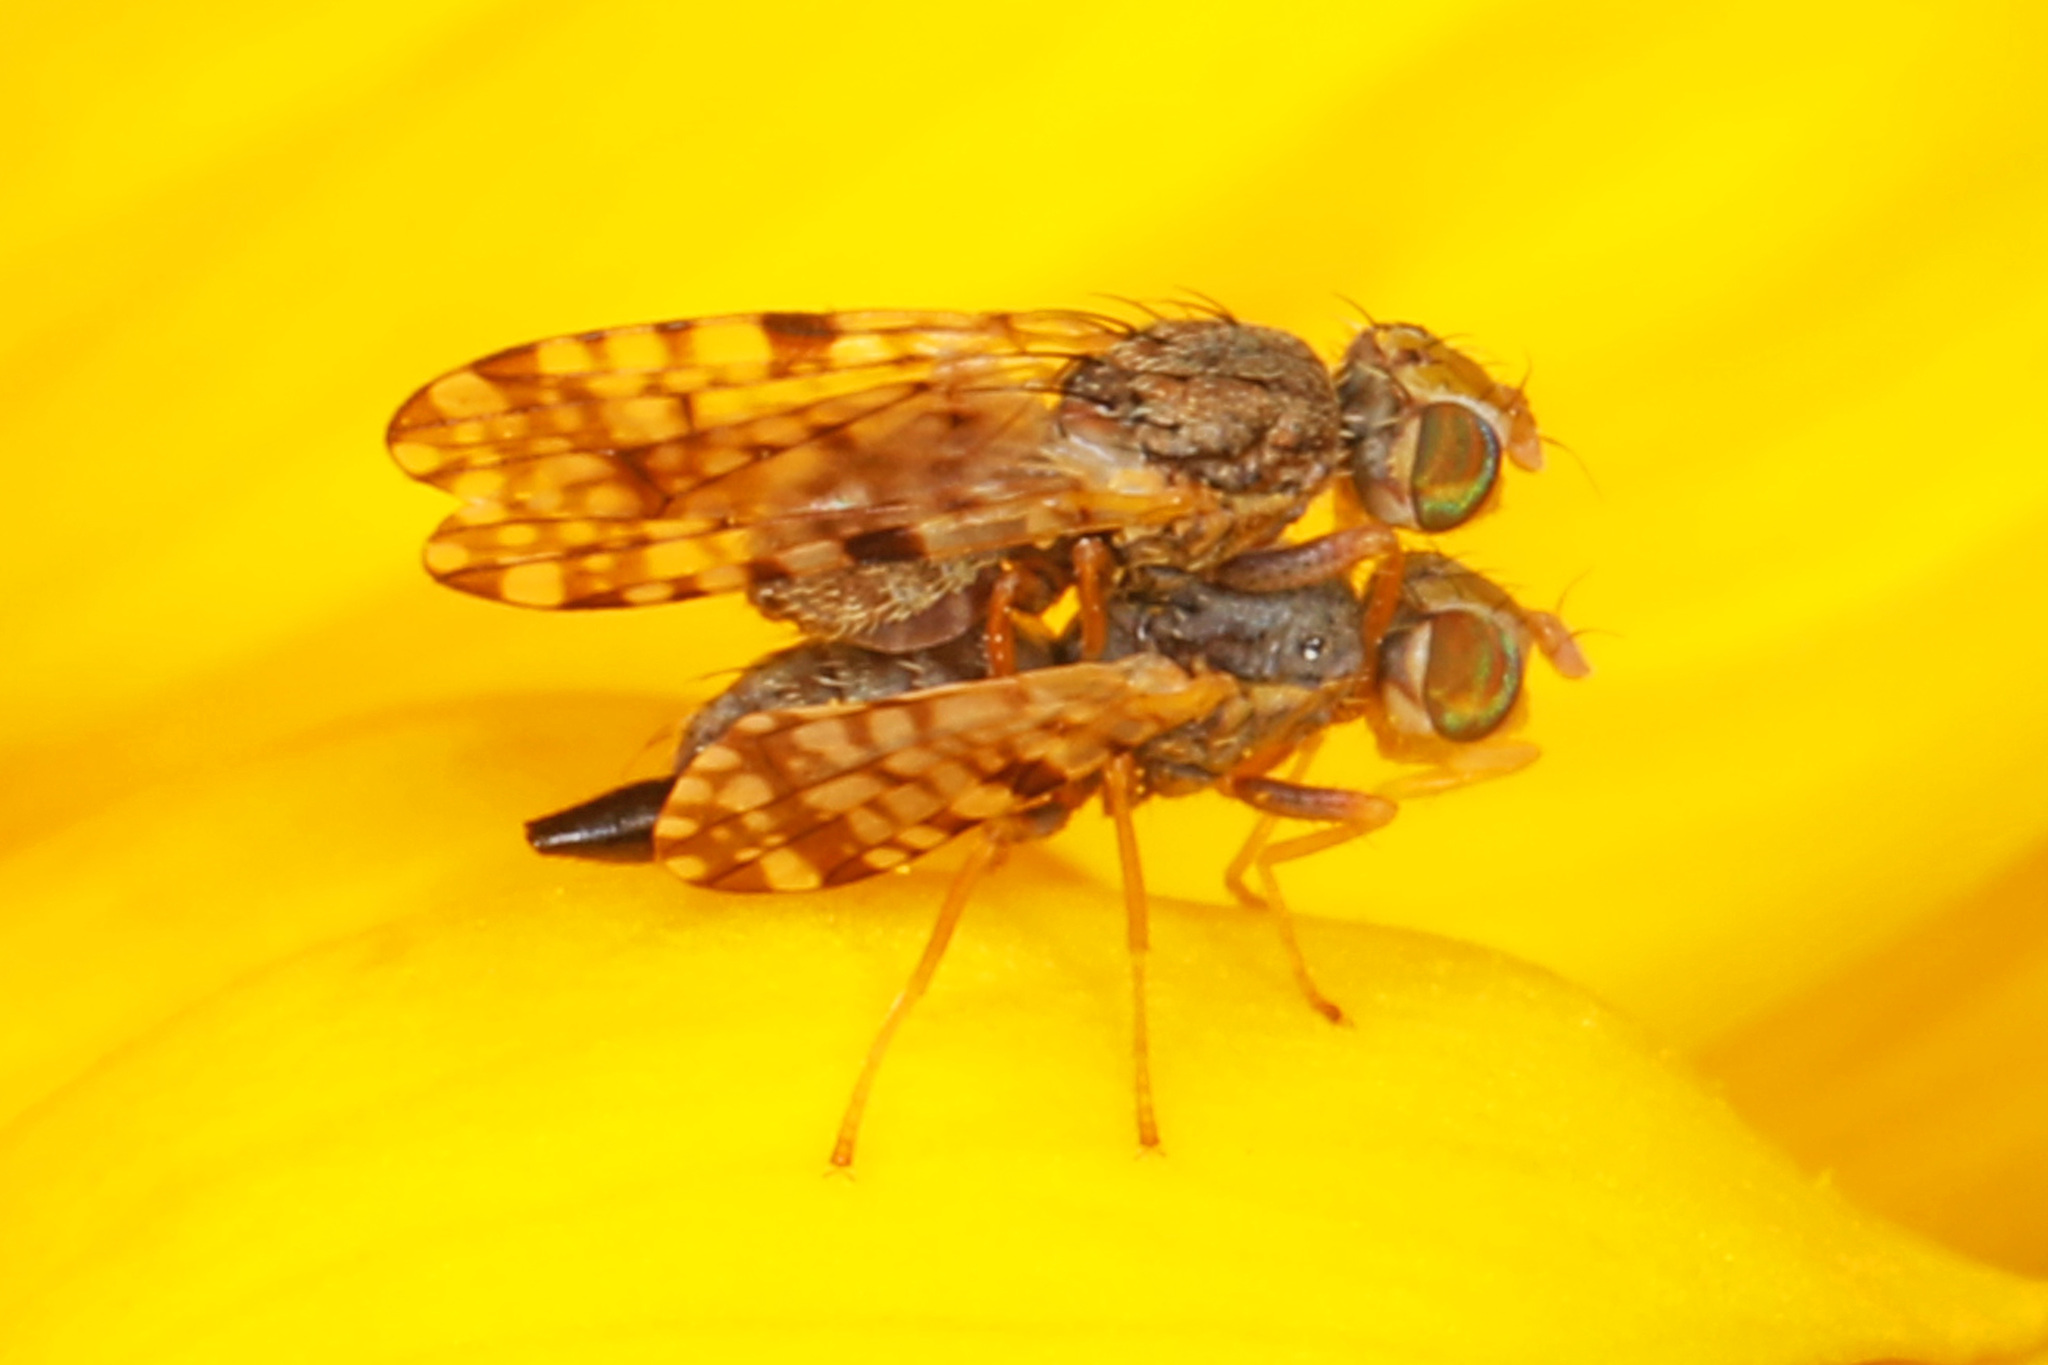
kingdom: Animalia
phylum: Arthropoda
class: Insecta
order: Diptera
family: Tephritidae
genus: Dioxyna
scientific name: Dioxyna picciola
